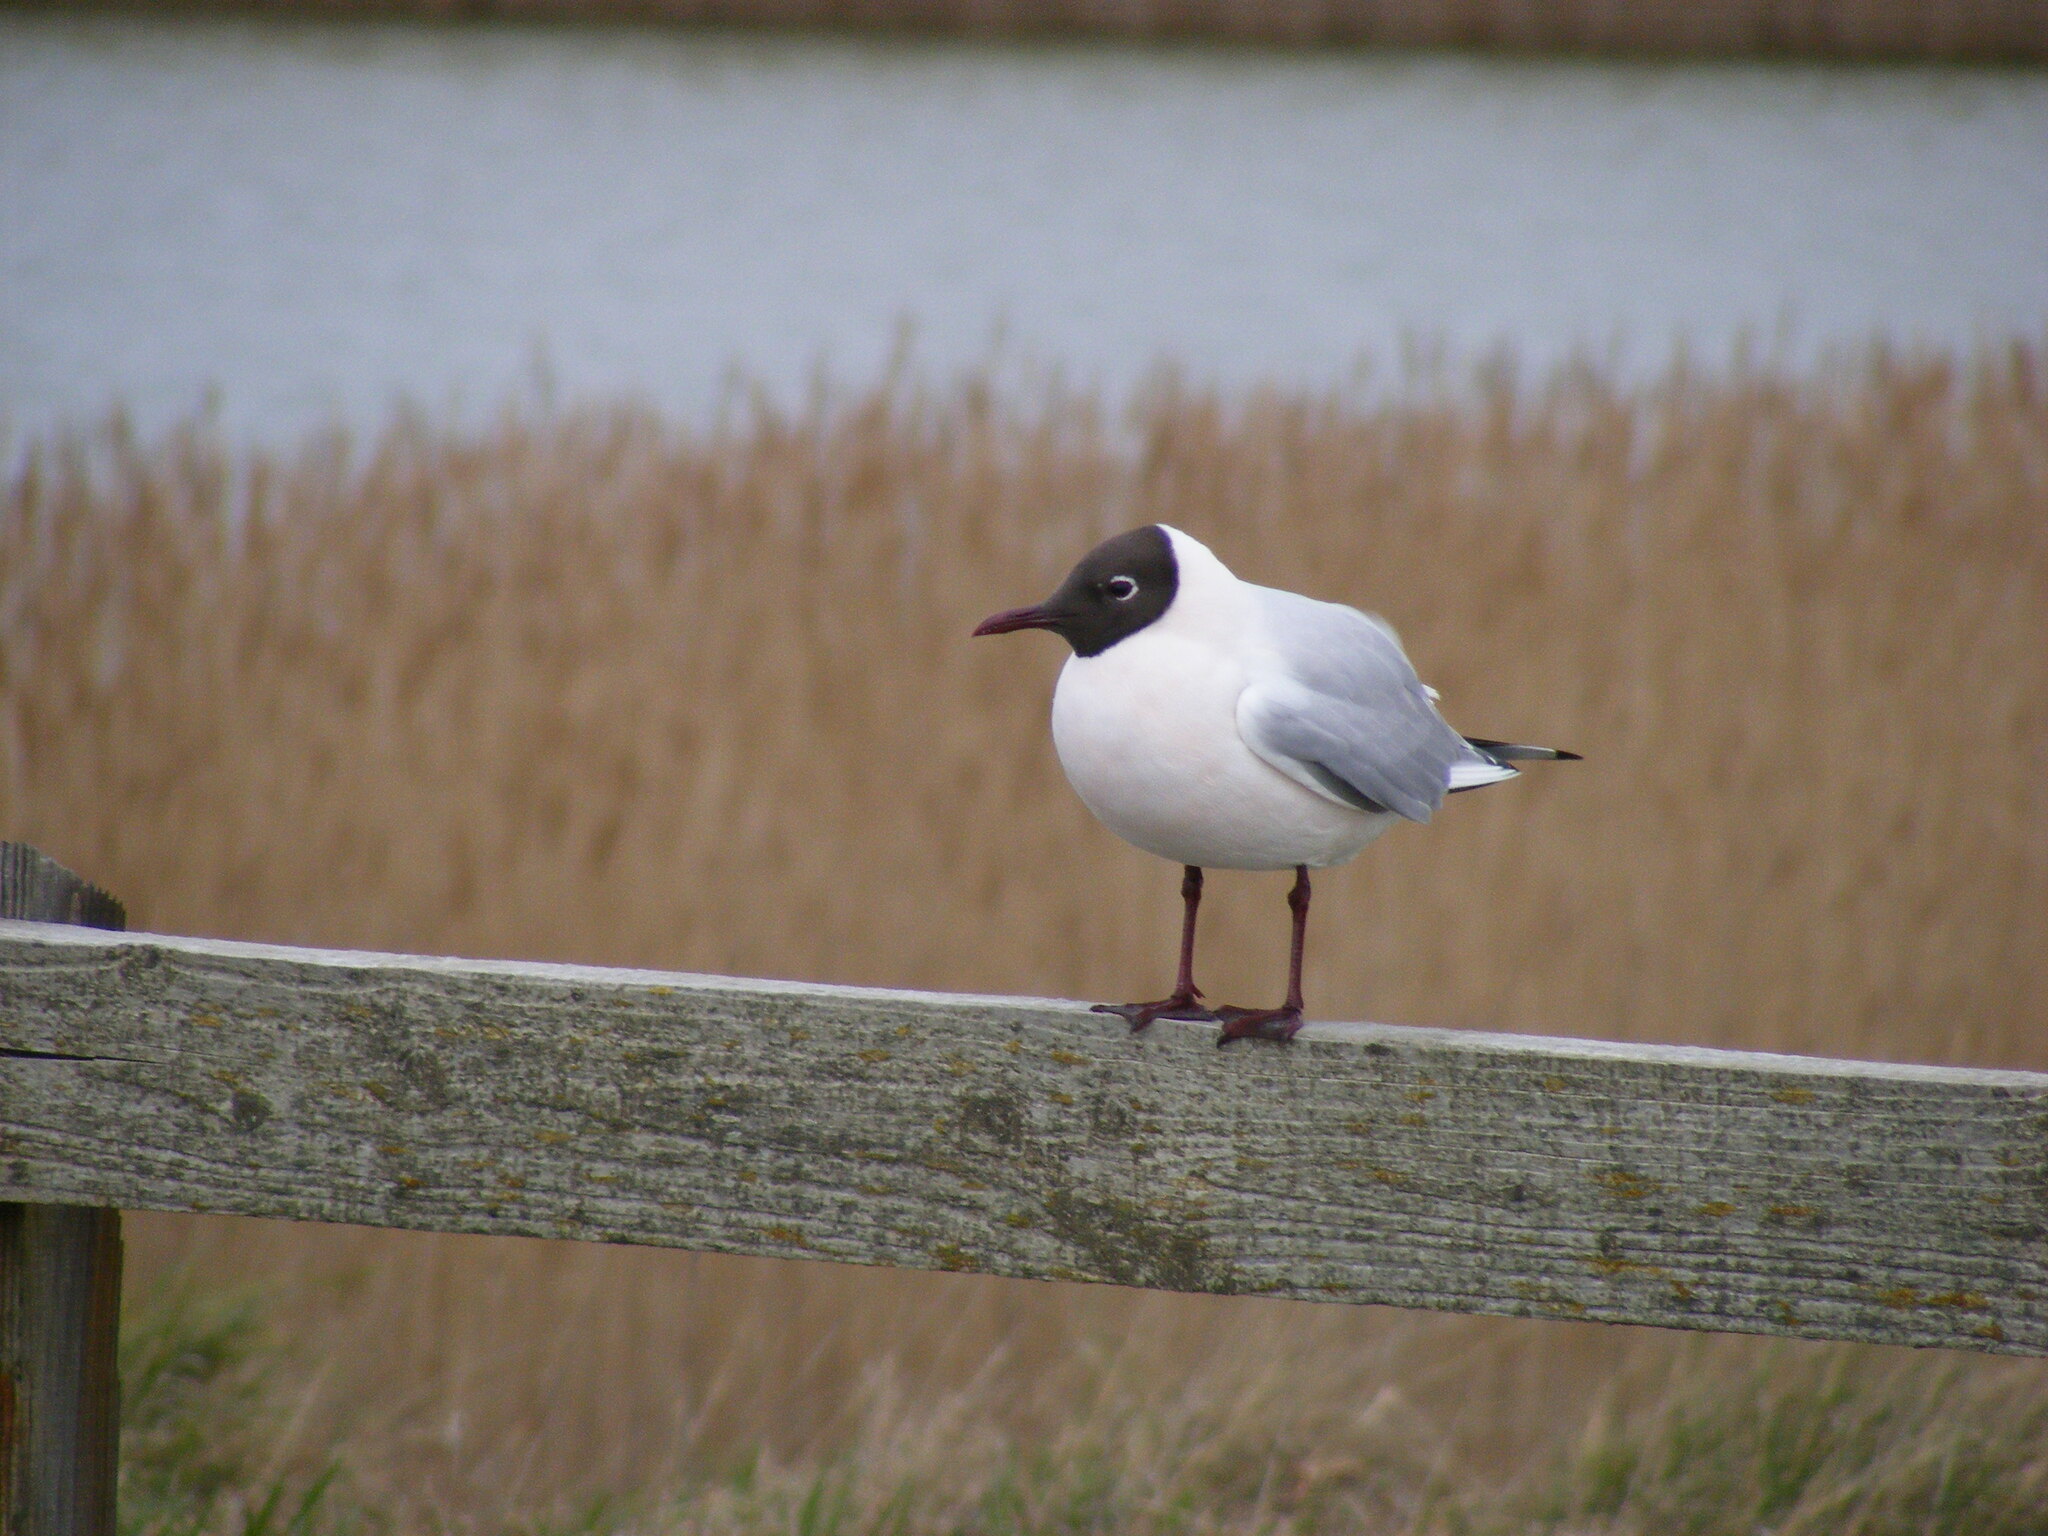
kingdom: Animalia
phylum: Chordata
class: Aves
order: Charadriiformes
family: Laridae
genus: Chroicocephalus
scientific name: Chroicocephalus ridibundus
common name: Black-headed gull
